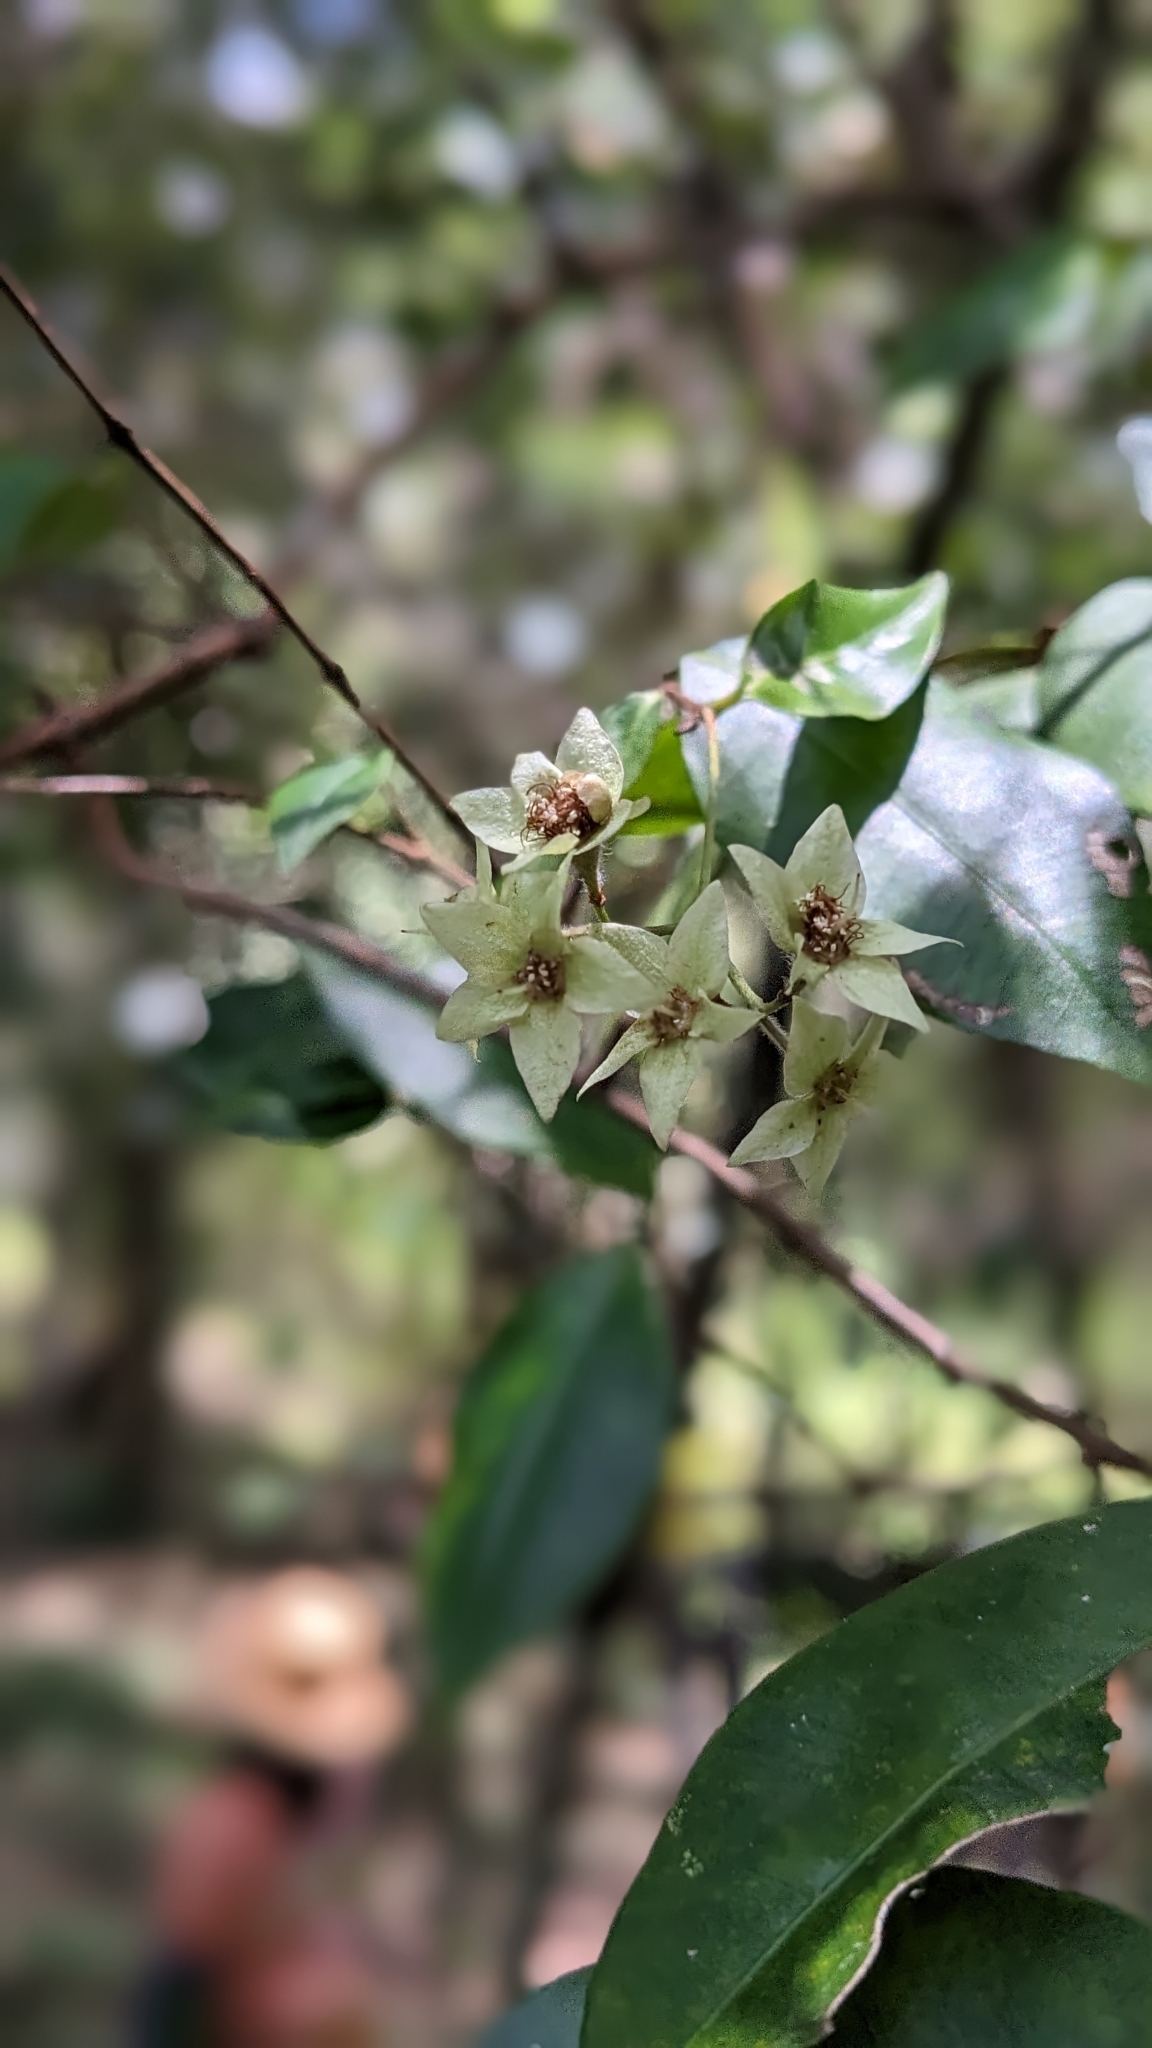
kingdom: Plantae
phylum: Tracheophyta
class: Magnoliopsida
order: Myrtales
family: Myrtaceae
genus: Backhousia
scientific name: Backhousia myrtifolia
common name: Carrol
